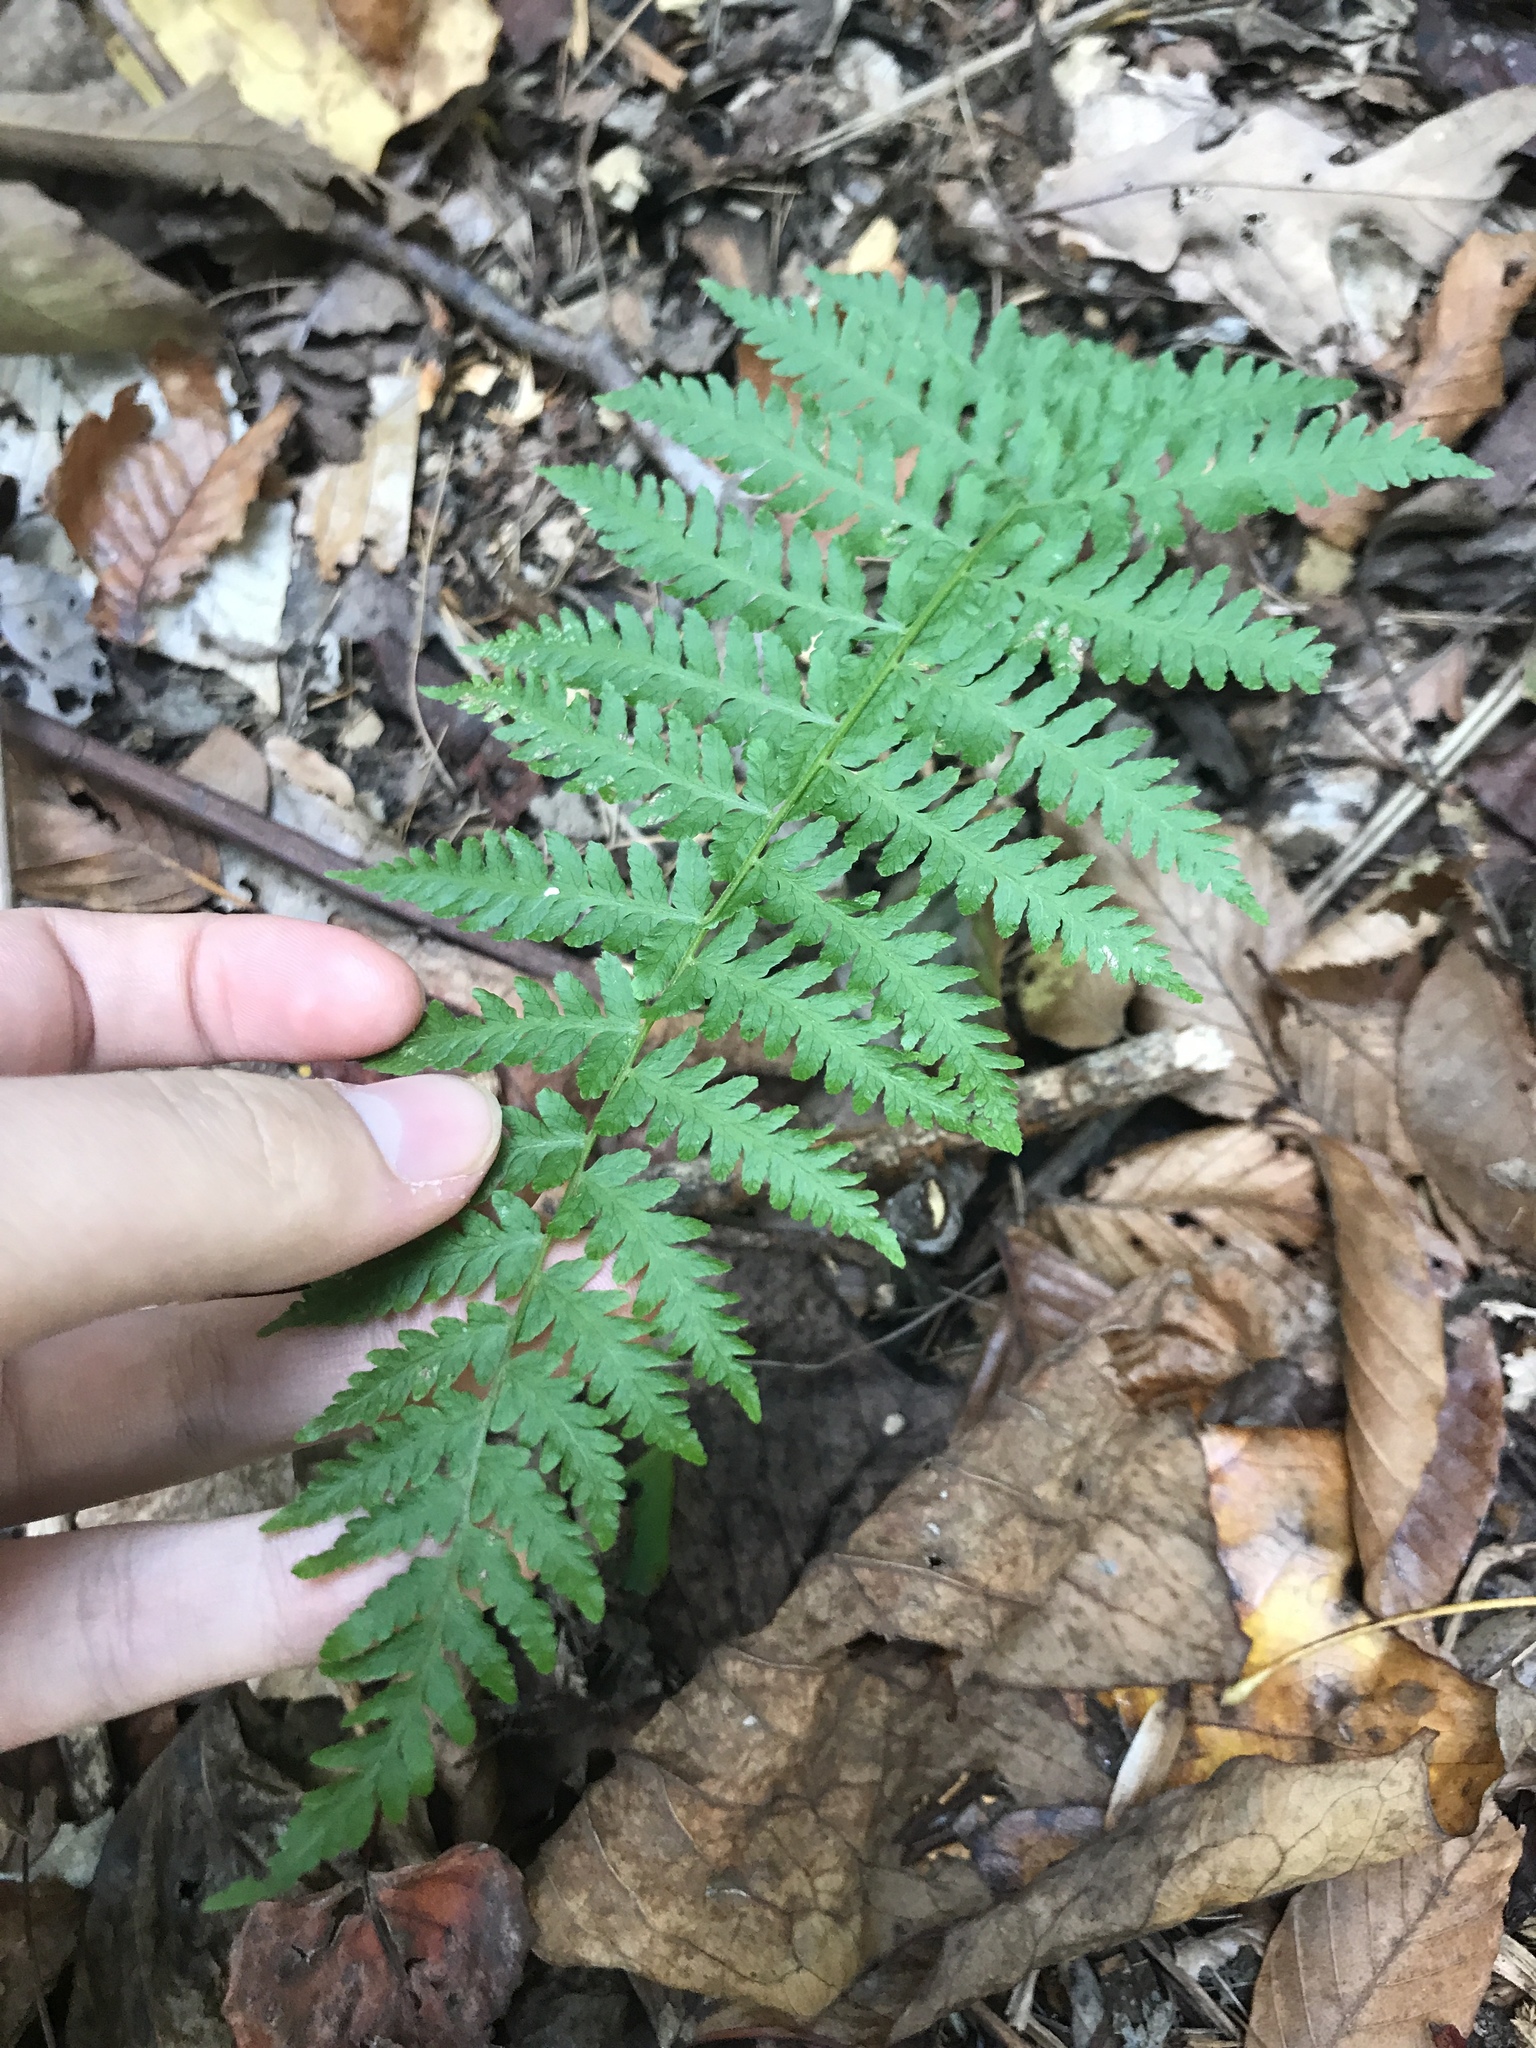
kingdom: Plantae
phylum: Tracheophyta
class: Polypodiopsida
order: Polypodiales
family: Thelypteridaceae
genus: Amauropelta
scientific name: Amauropelta noveboracensis
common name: New york fern
